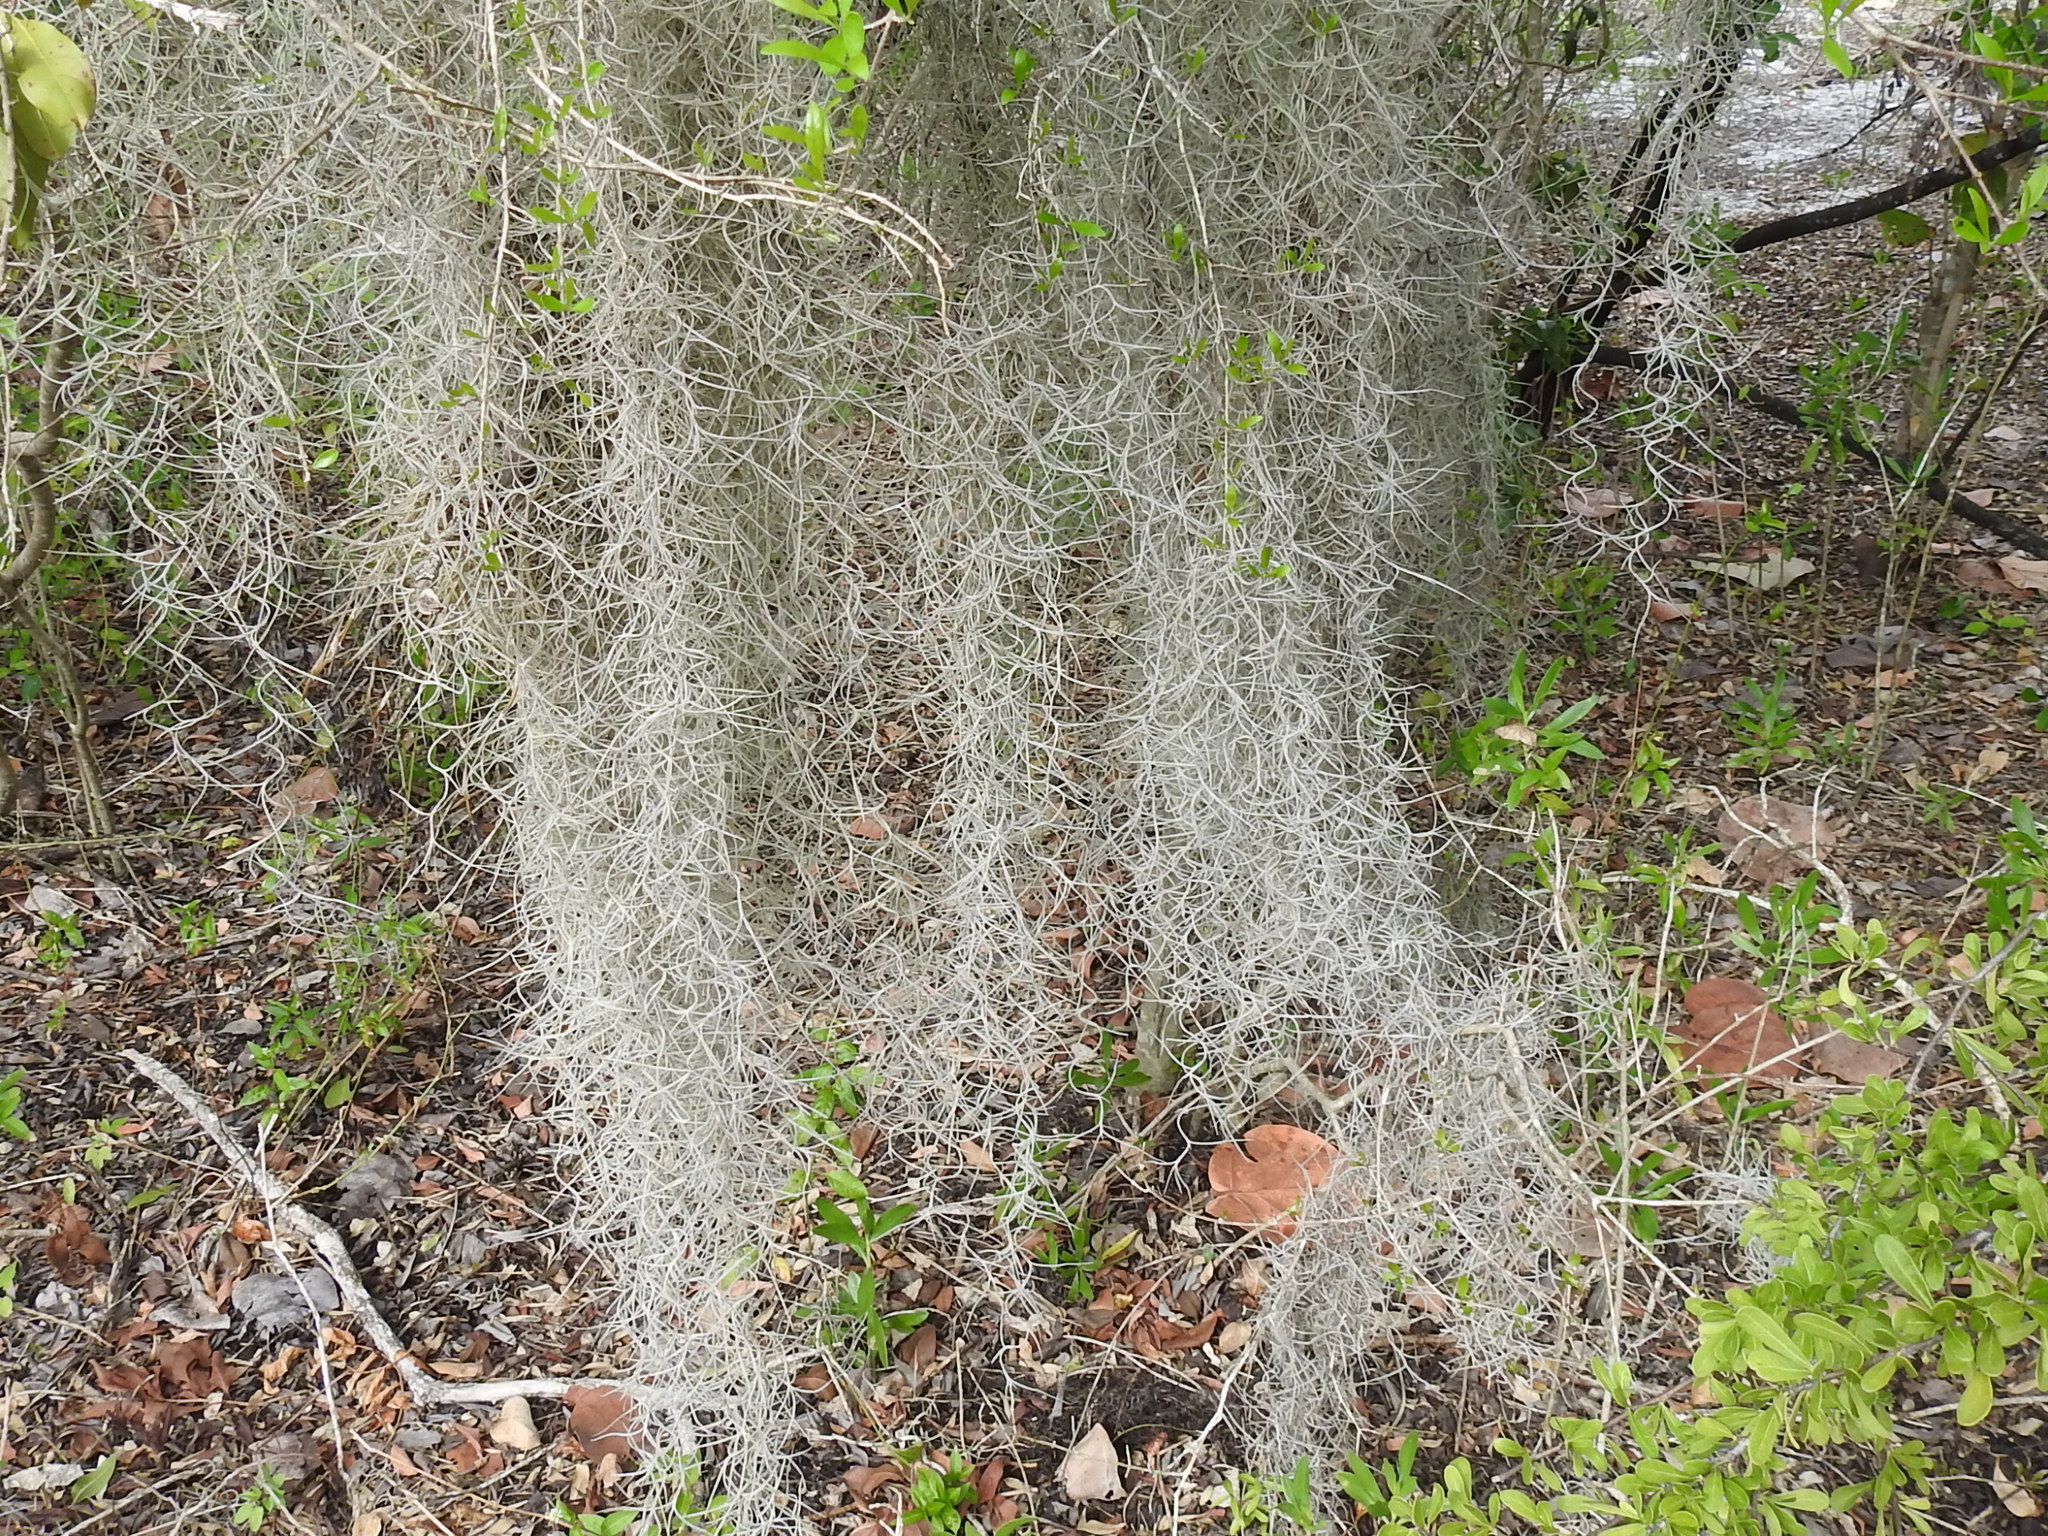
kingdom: Plantae
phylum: Tracheophyta
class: Liliopsida
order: Poales
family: Bromeliaceae
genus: Tillandsia
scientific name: Tillandsia usneoides
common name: Spanish moss
